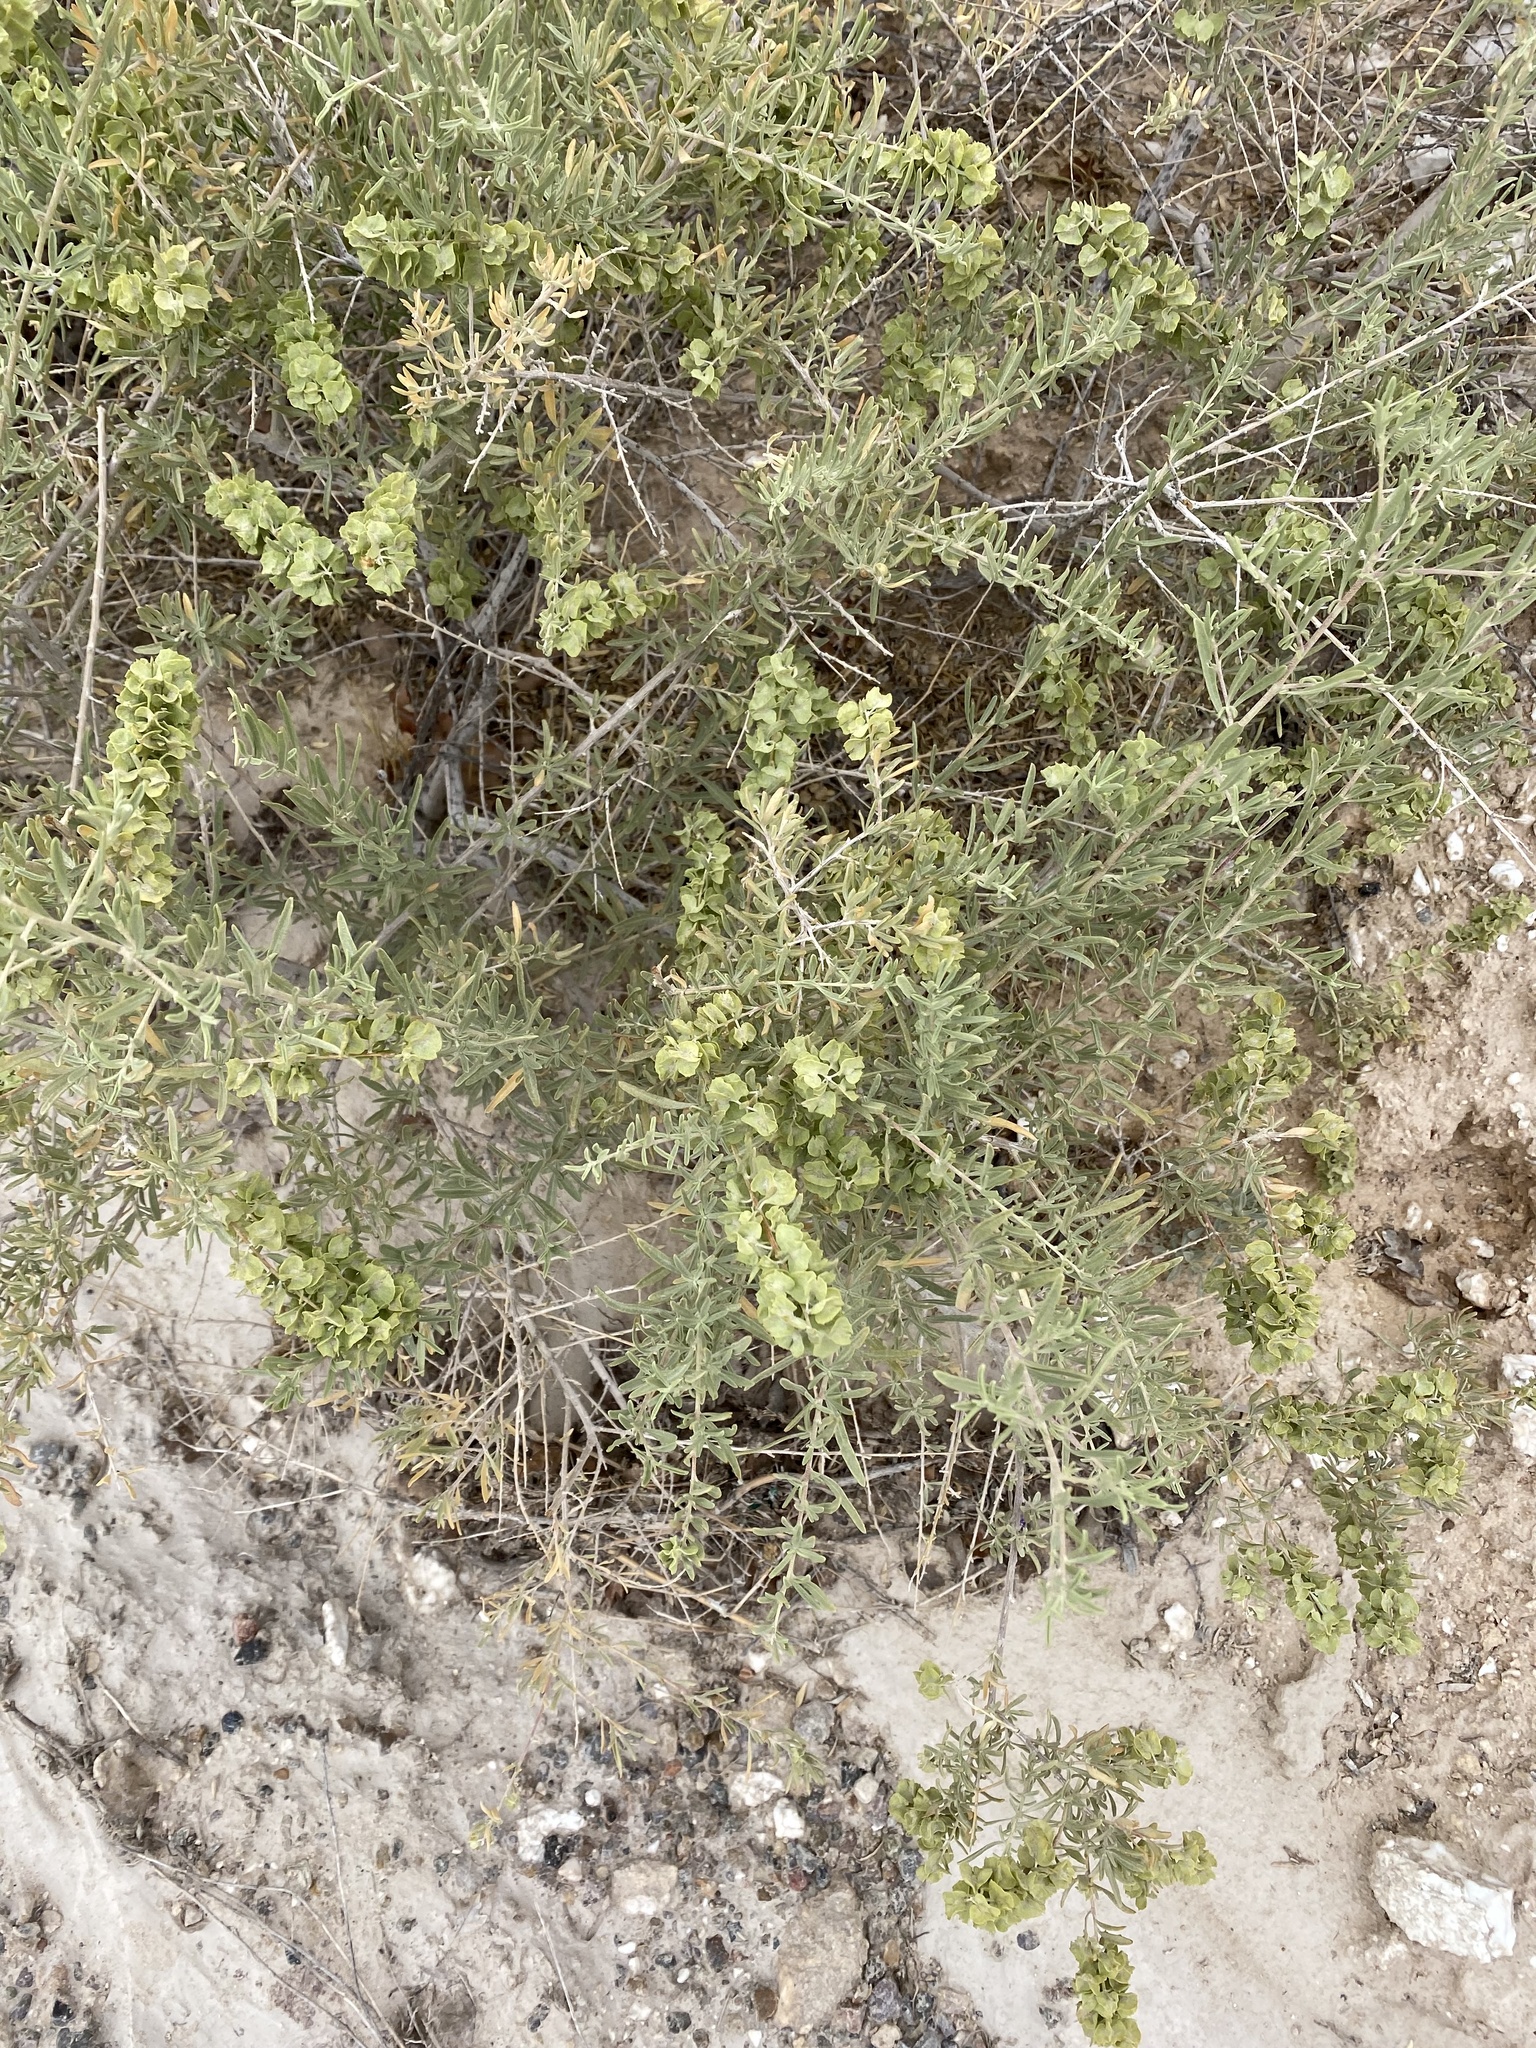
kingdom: Plantae
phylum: Tracheophyta
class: Magnoliopsida
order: Caryophyllales
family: Amaranthaceae
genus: Atriplex
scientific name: Atriplex canescens
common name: Four-wing saltbush
